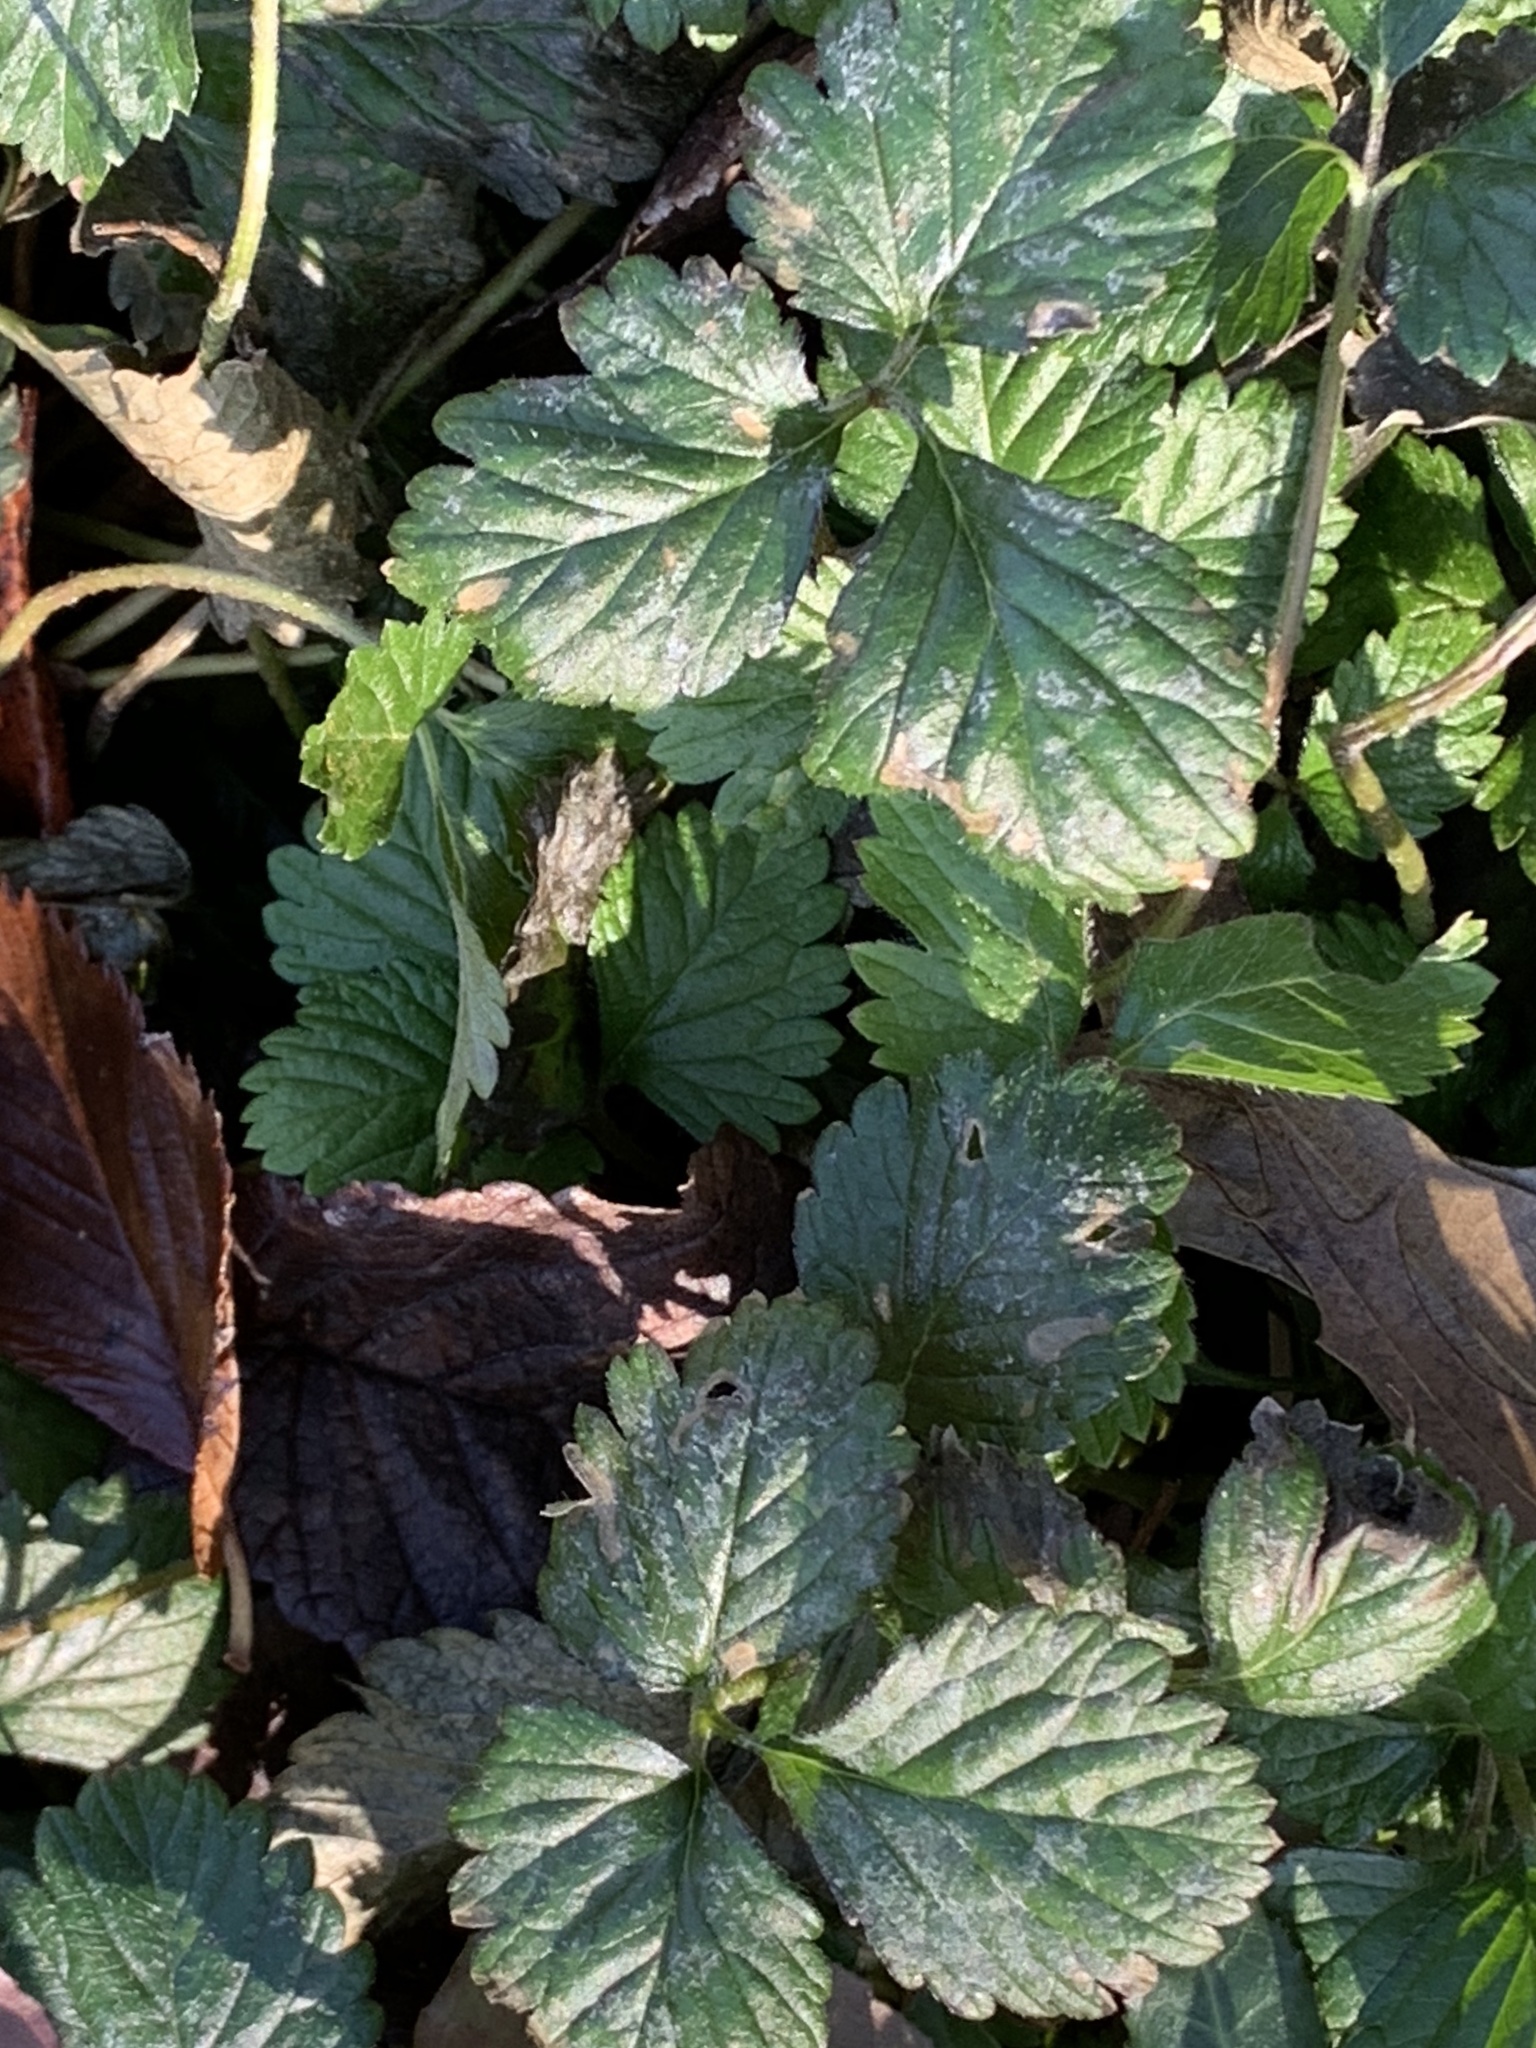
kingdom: Plantae
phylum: Tracheophyta
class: Magnoliopsida
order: Rosales
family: Rosaceae
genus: Potentilla
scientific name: Potentilla indica
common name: Yellow-flowered strawberry
